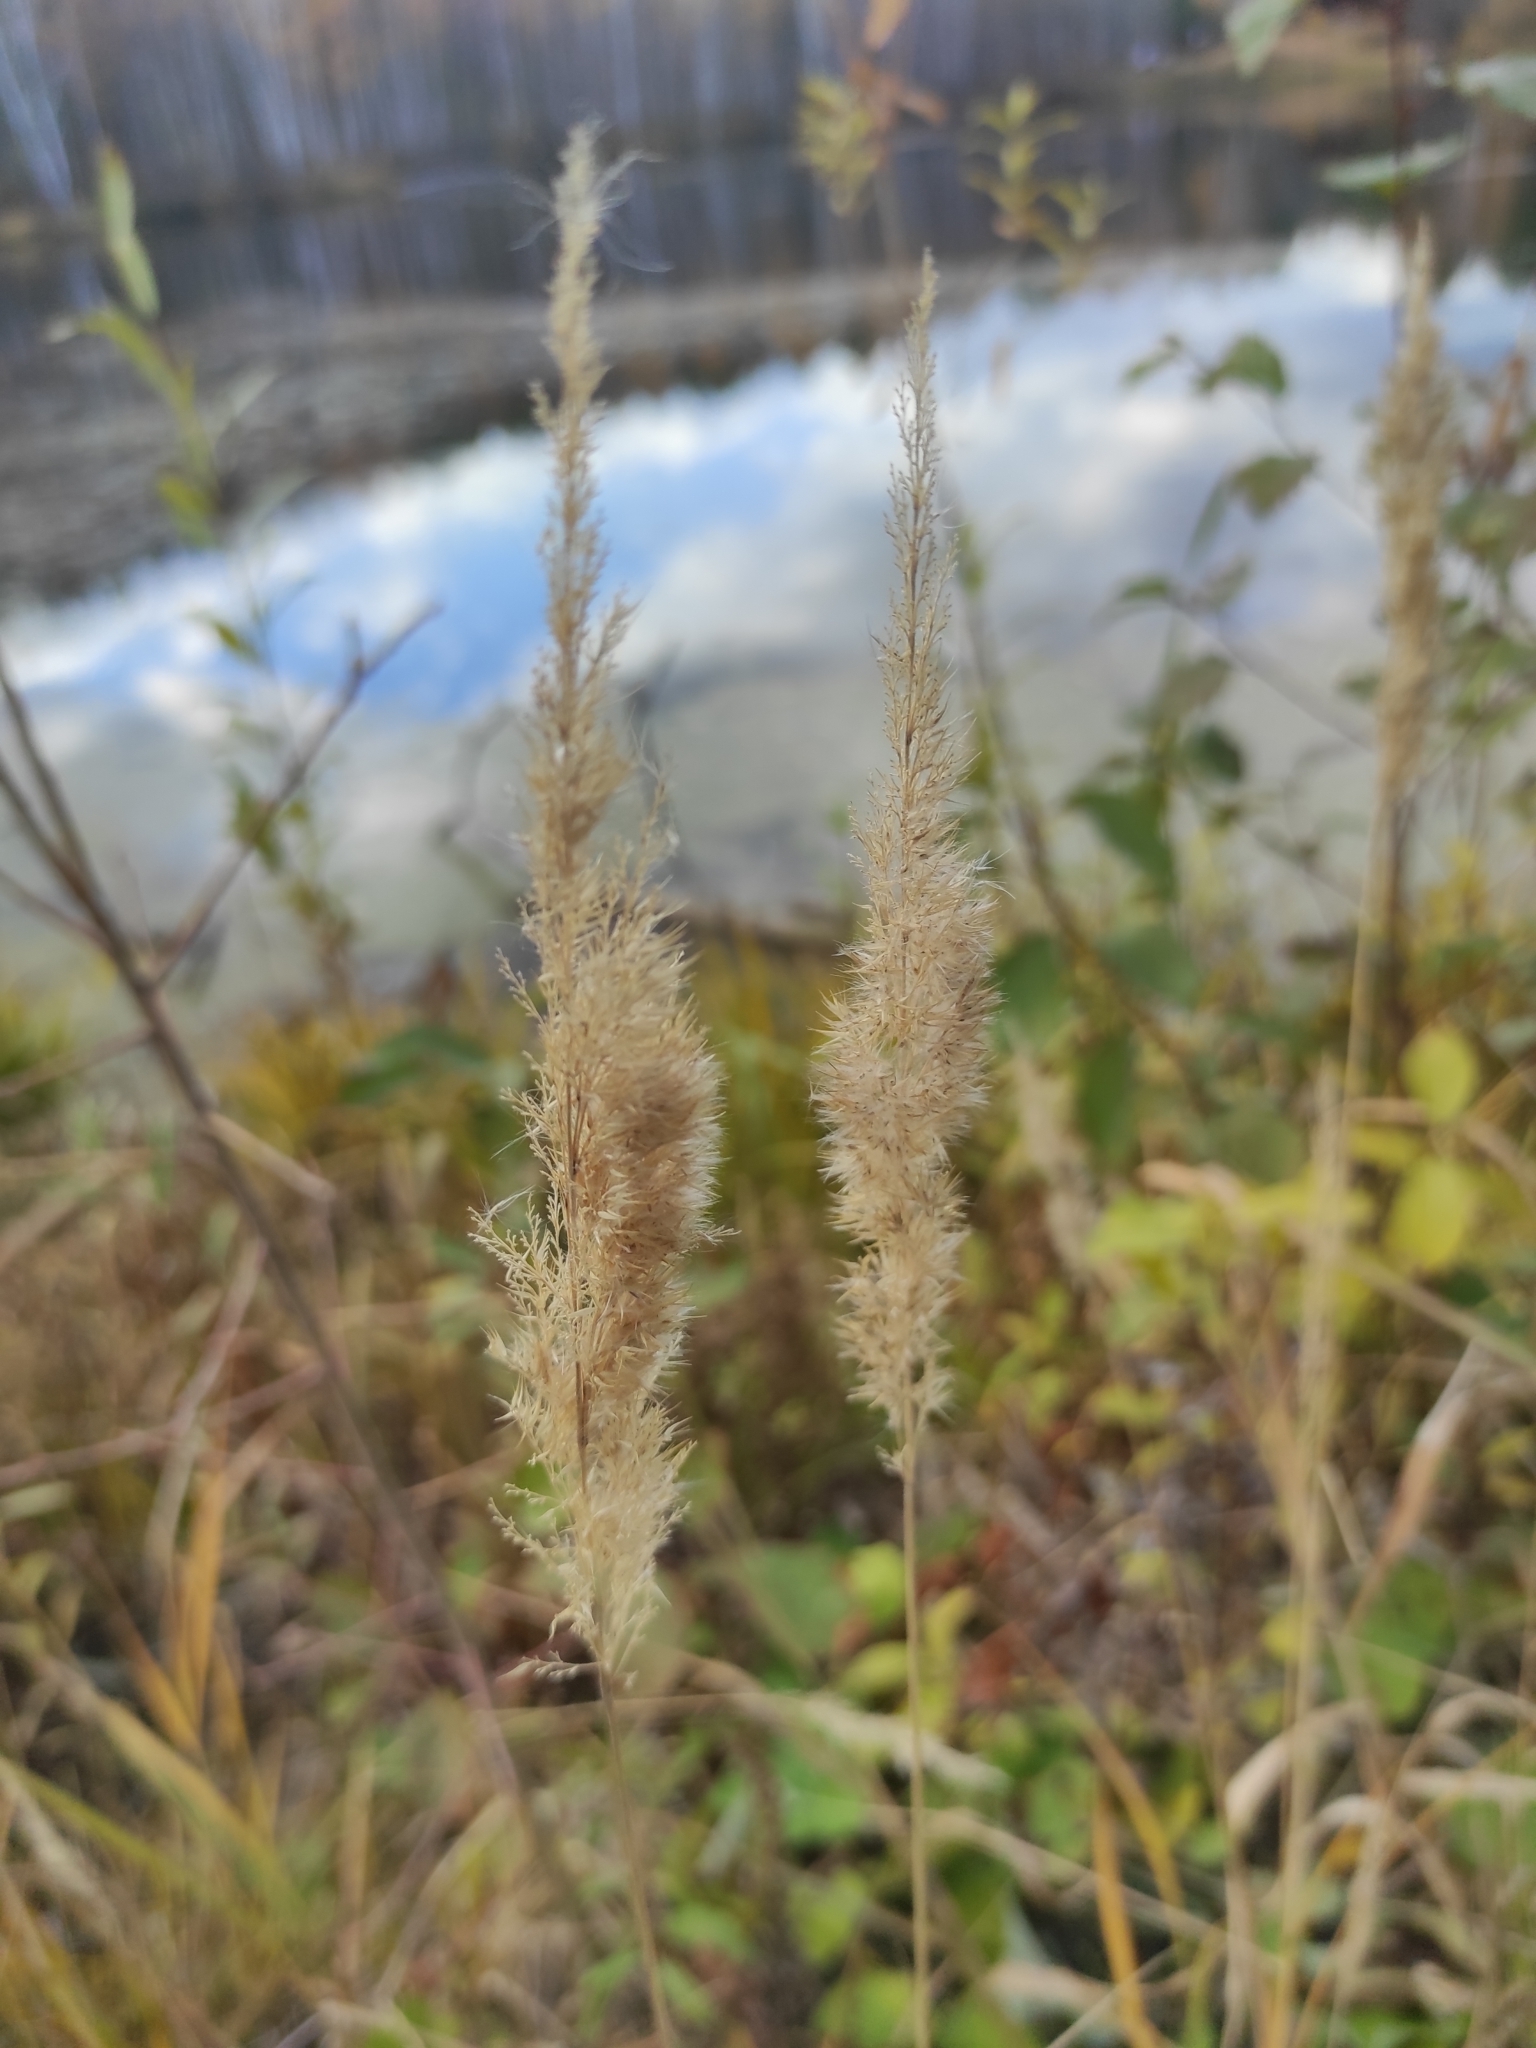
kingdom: Plantae
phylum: Tracheophyta
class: Liliopsida
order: Poales
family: Poaceae
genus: Calamagrostis
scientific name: Calamagrostis
